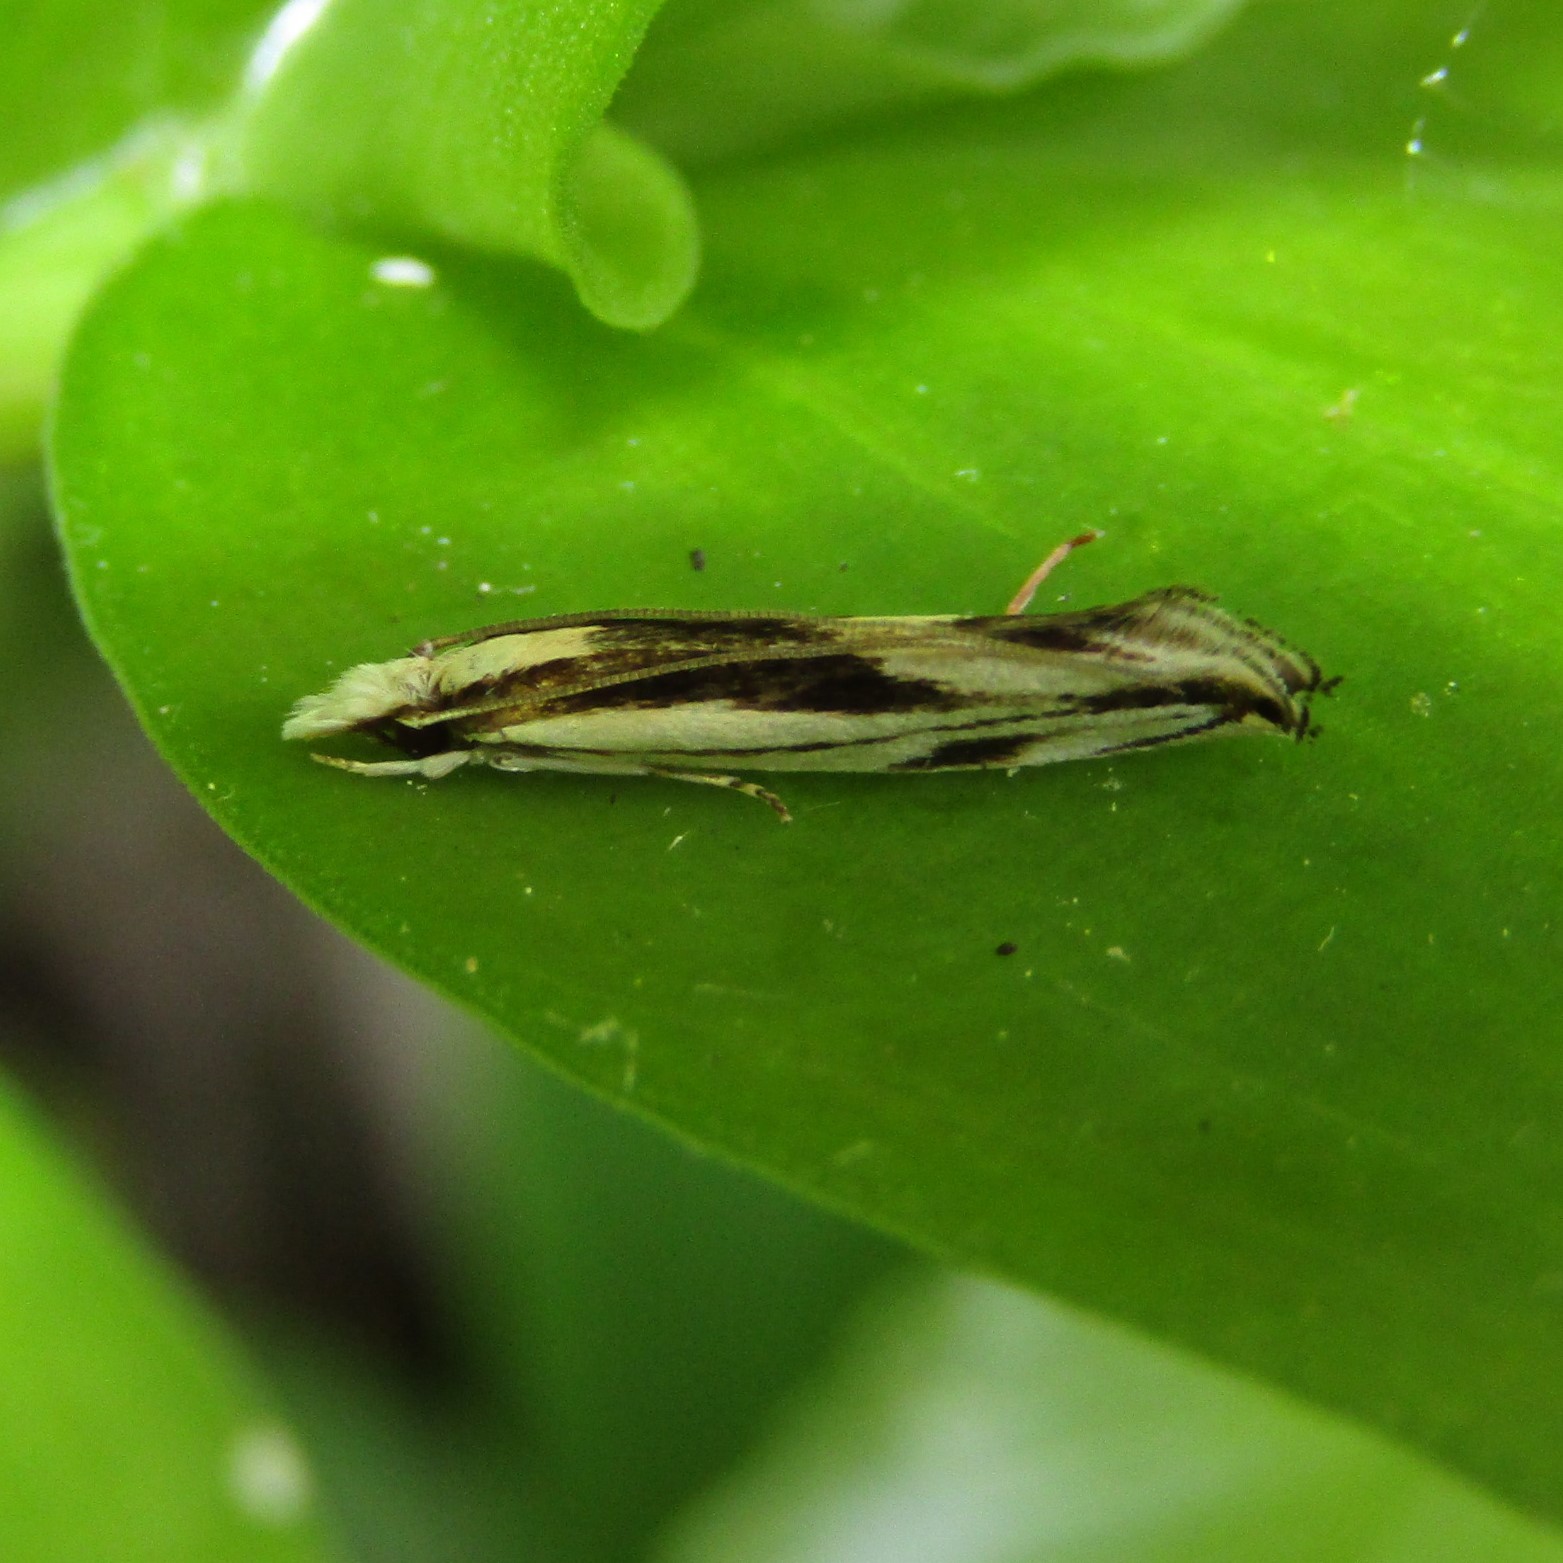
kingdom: Animalia
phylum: Arthropoda
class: Insecta
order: Lepidoptera
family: Tineidae
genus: Erechthias
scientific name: Erechthias chasmatias
